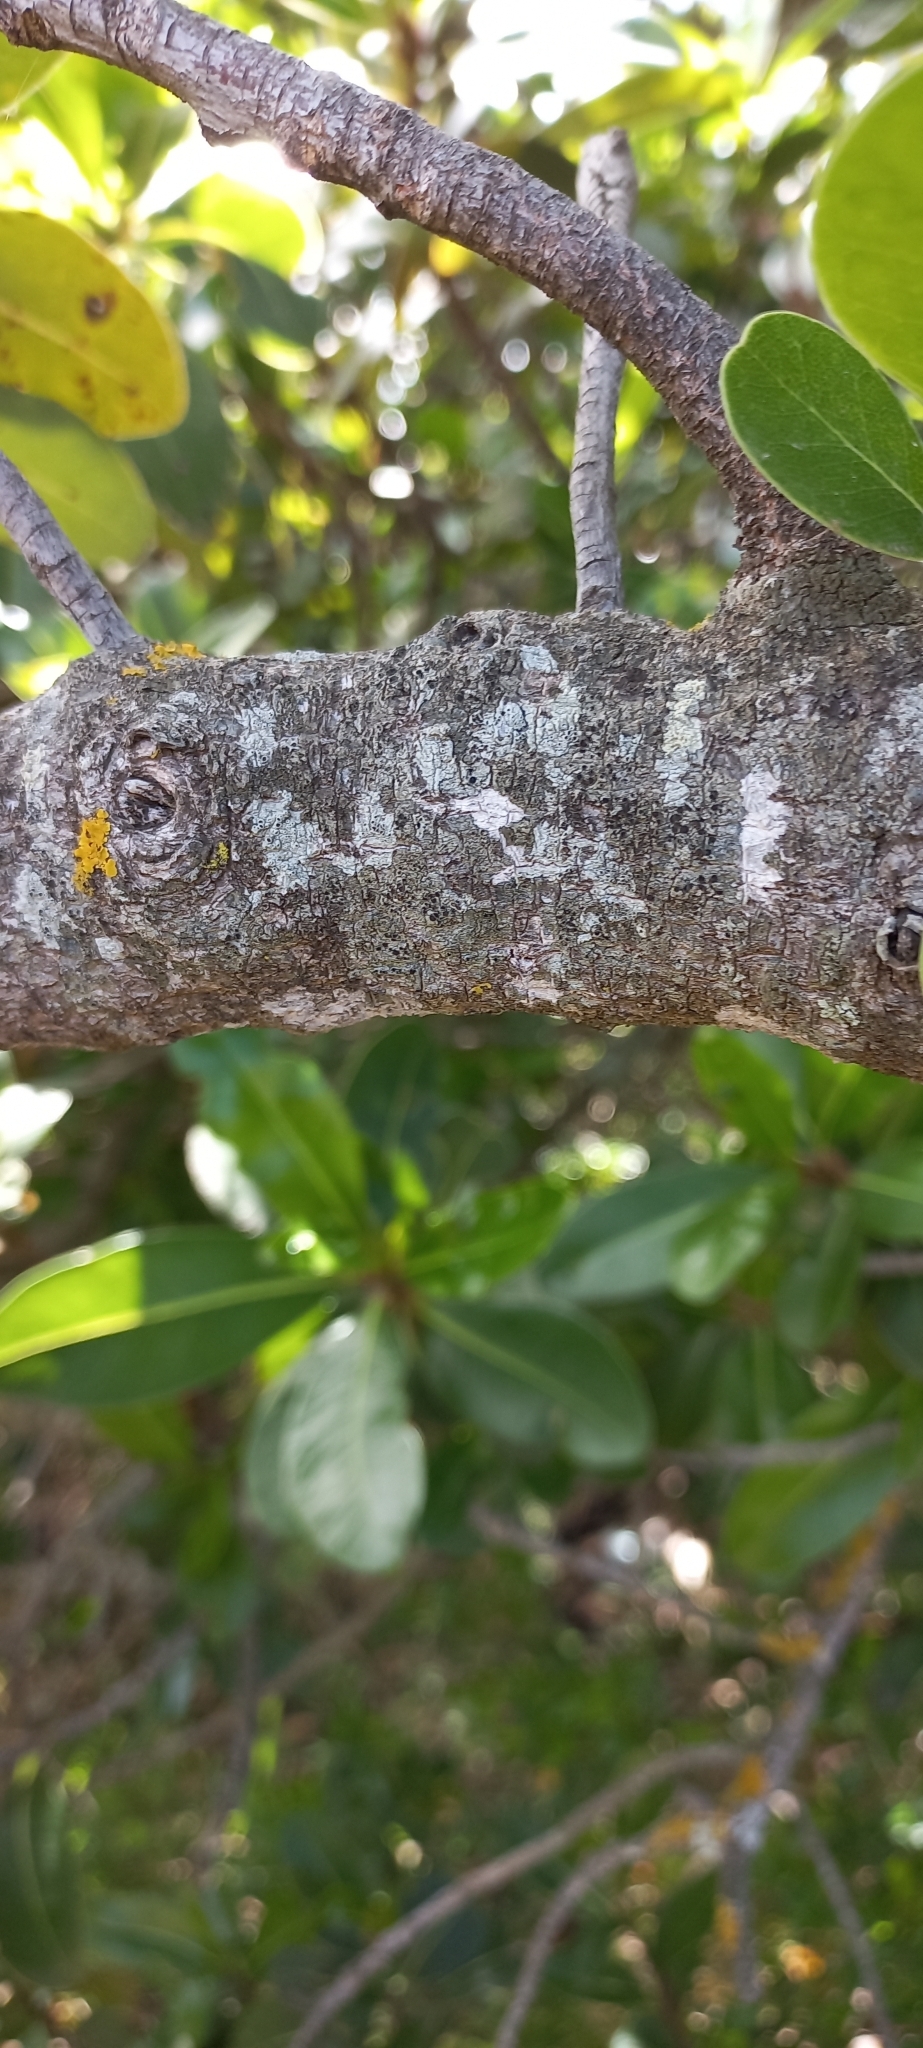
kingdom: Plantae
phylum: Tracheophyta
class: Magnoliopsida
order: Ericales
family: Sapotaceae
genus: Sideroxylon
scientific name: Sideroxylon inerme
